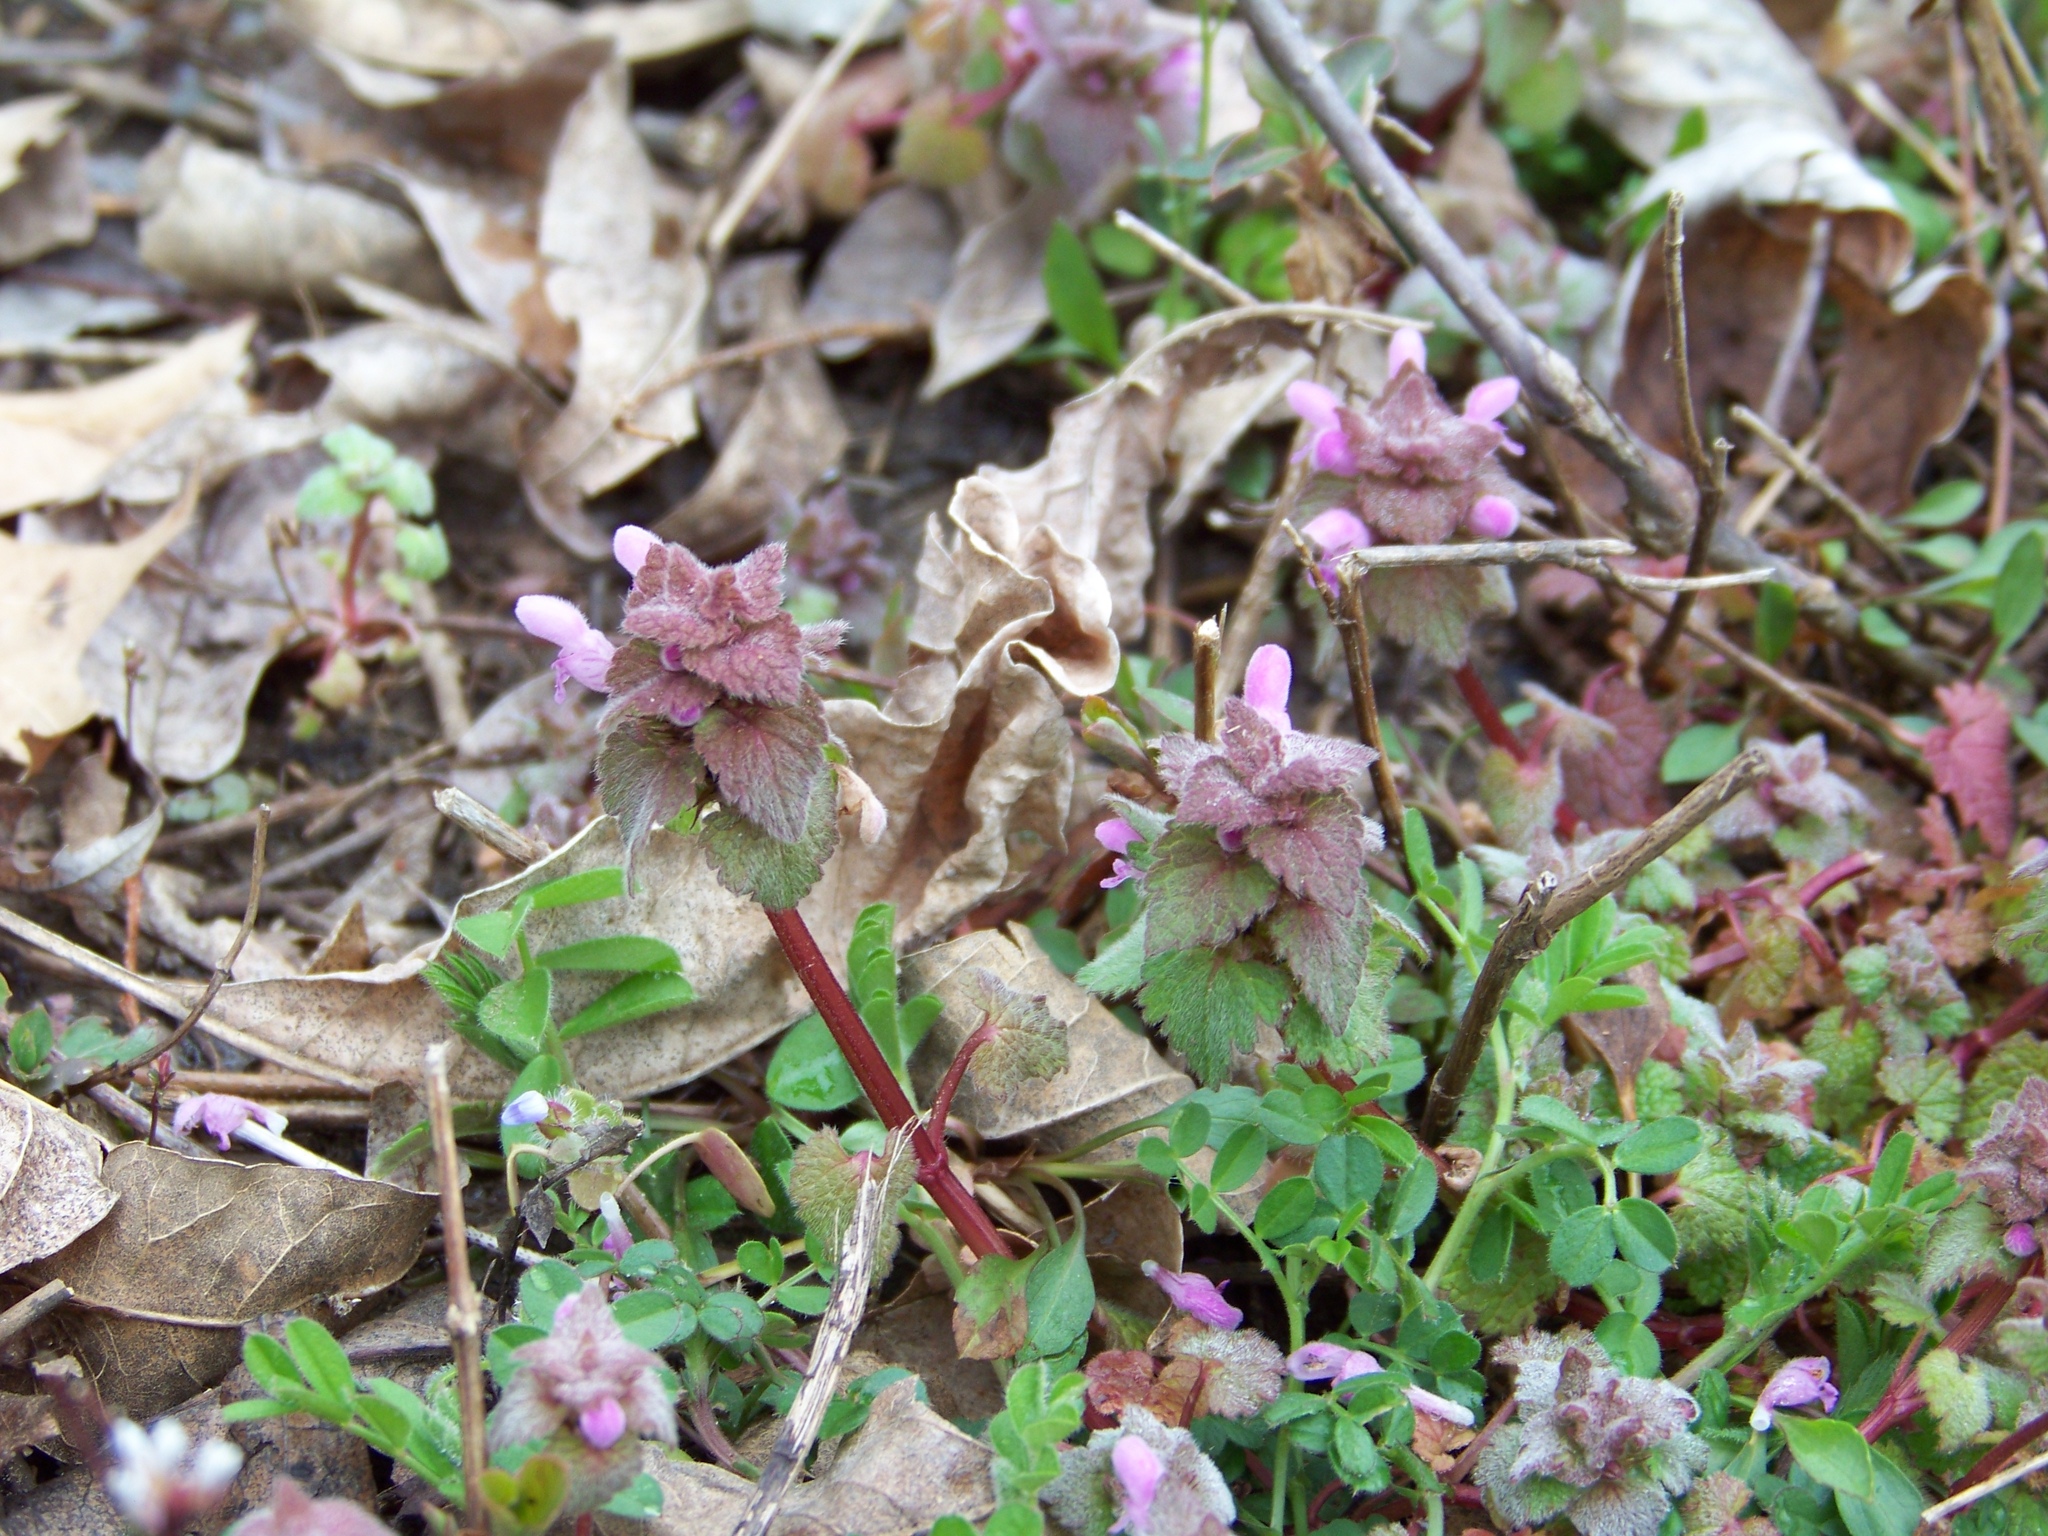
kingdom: Plantae
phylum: Tracheophyta
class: Magnoliopsida
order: Lamiales
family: Lamiaceae
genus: Lamium
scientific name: Lamium purpureum
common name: Red dead-nettle
